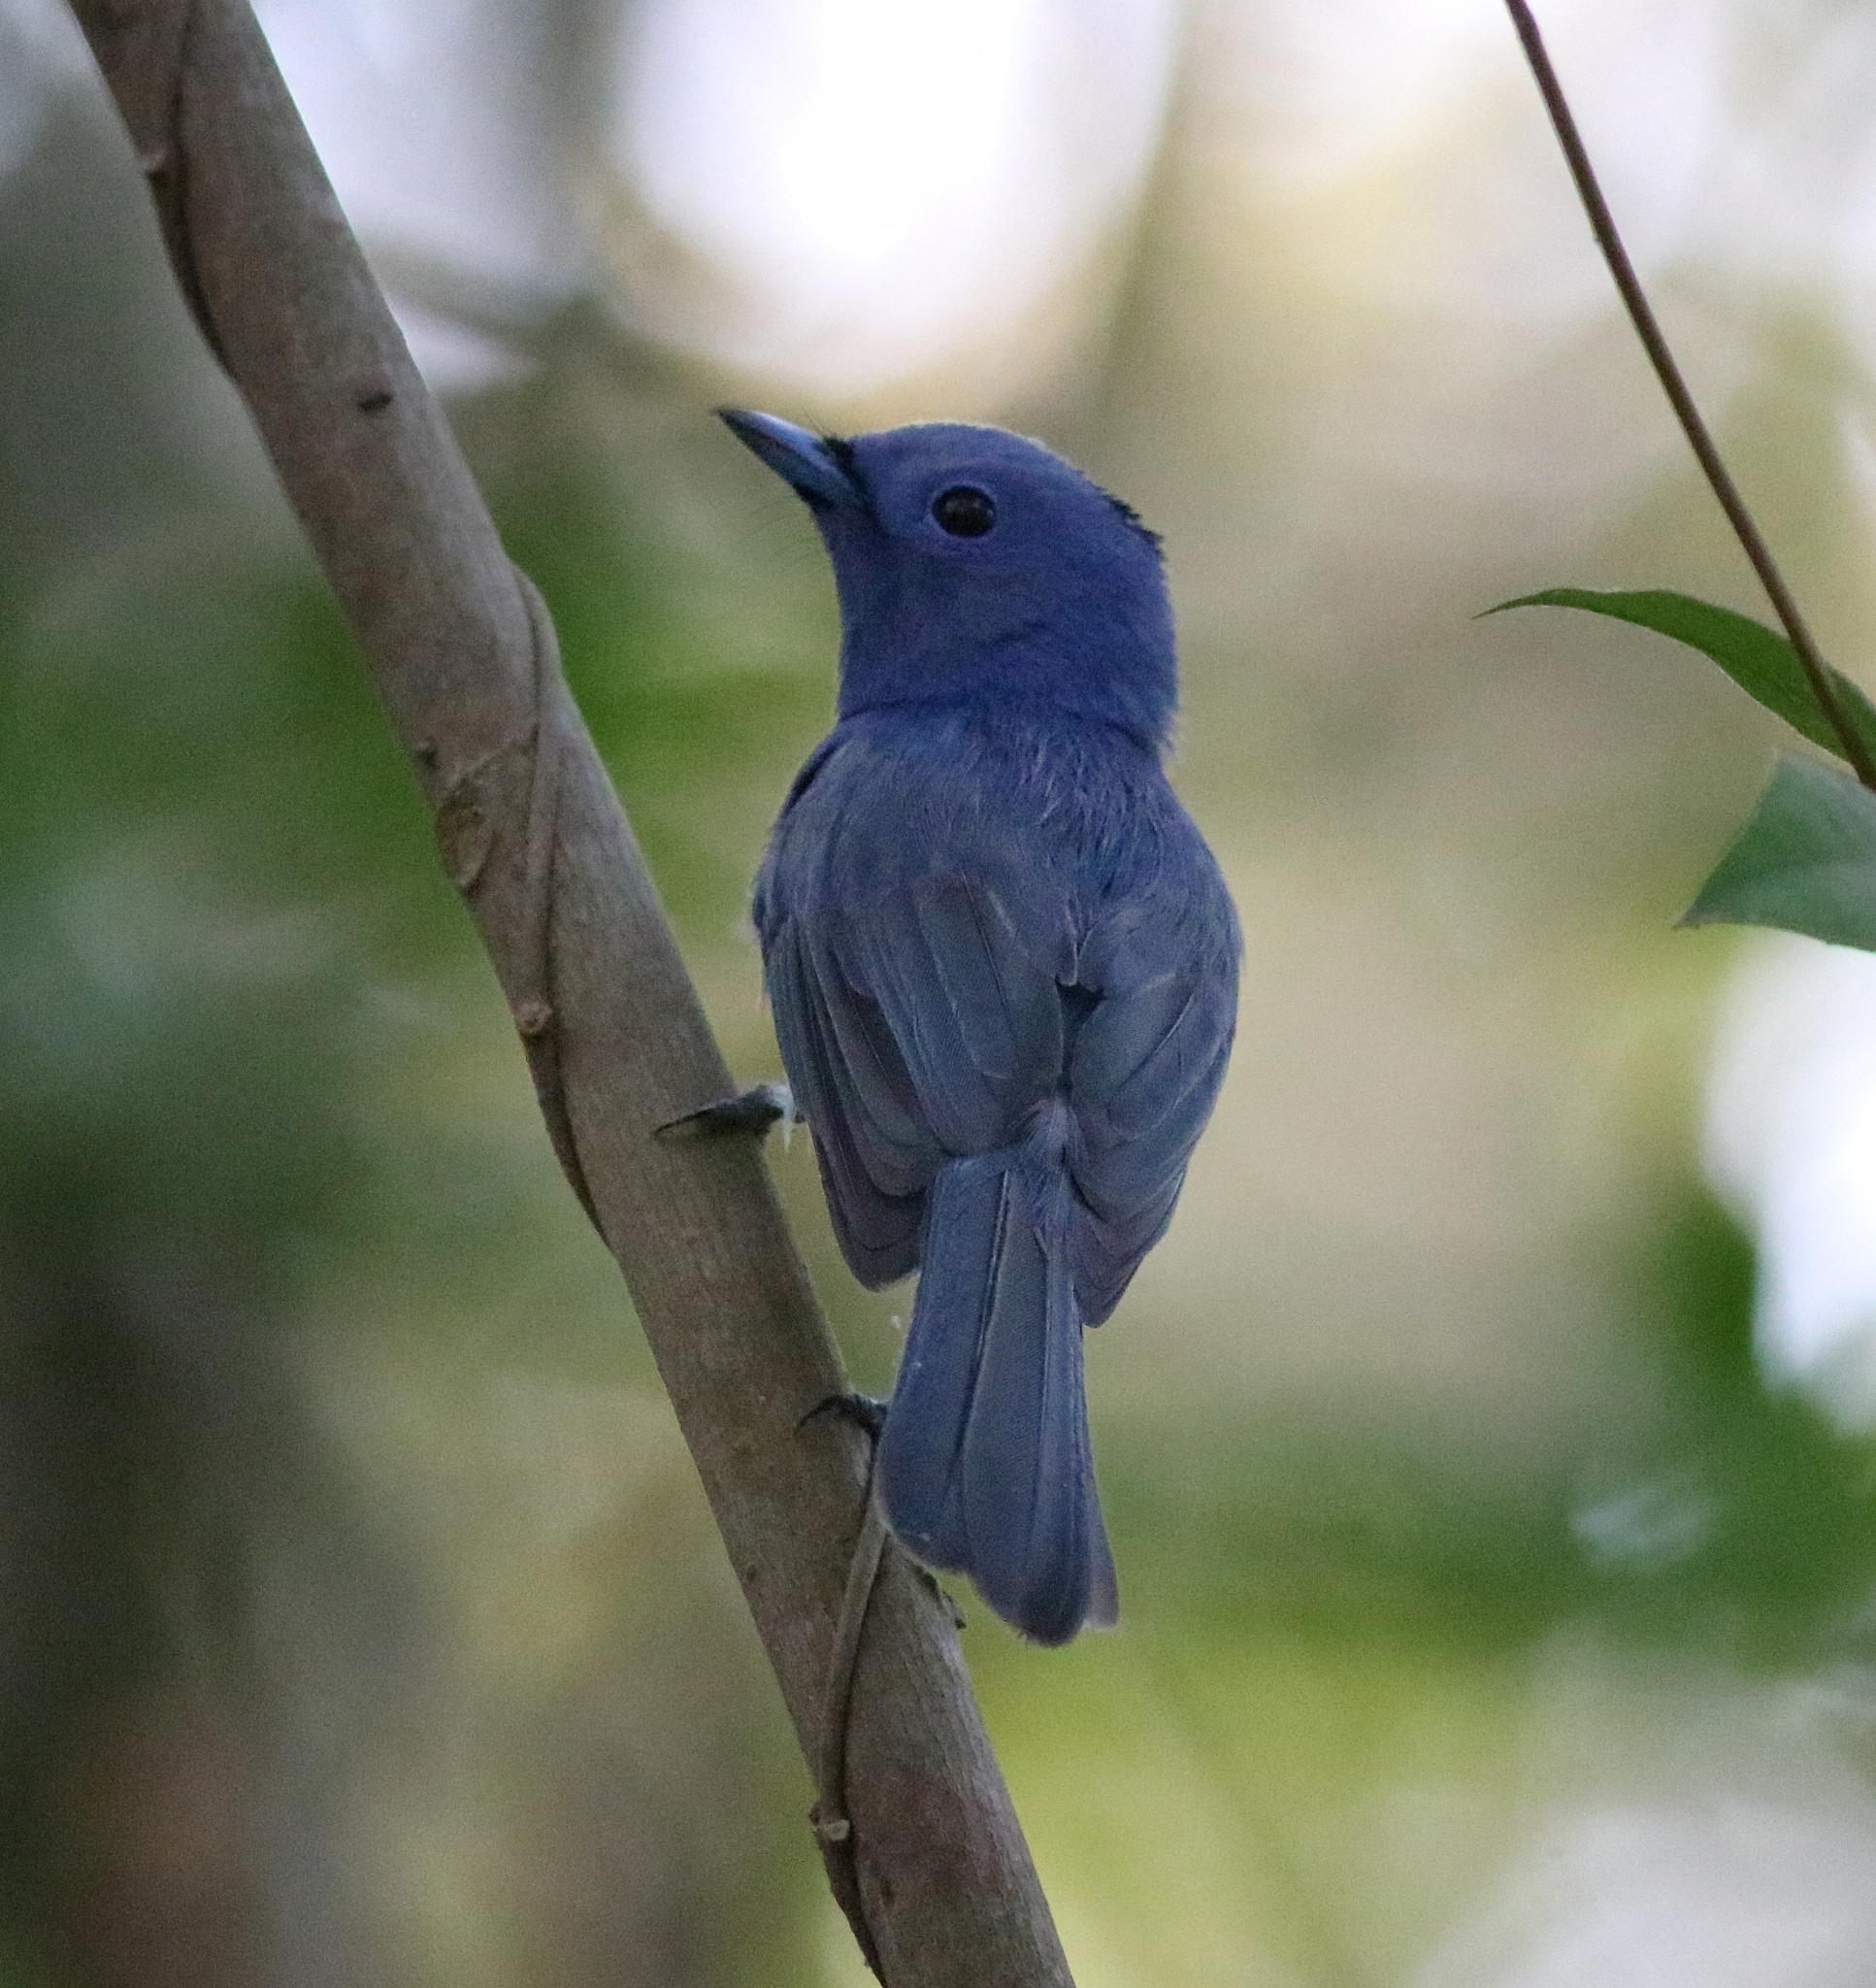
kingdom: Animalia
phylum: Chordata
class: Aves
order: Passeriformes
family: Monarchidae
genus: Hypothymis
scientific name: Hypothymis azurea
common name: Black-naped monarch
